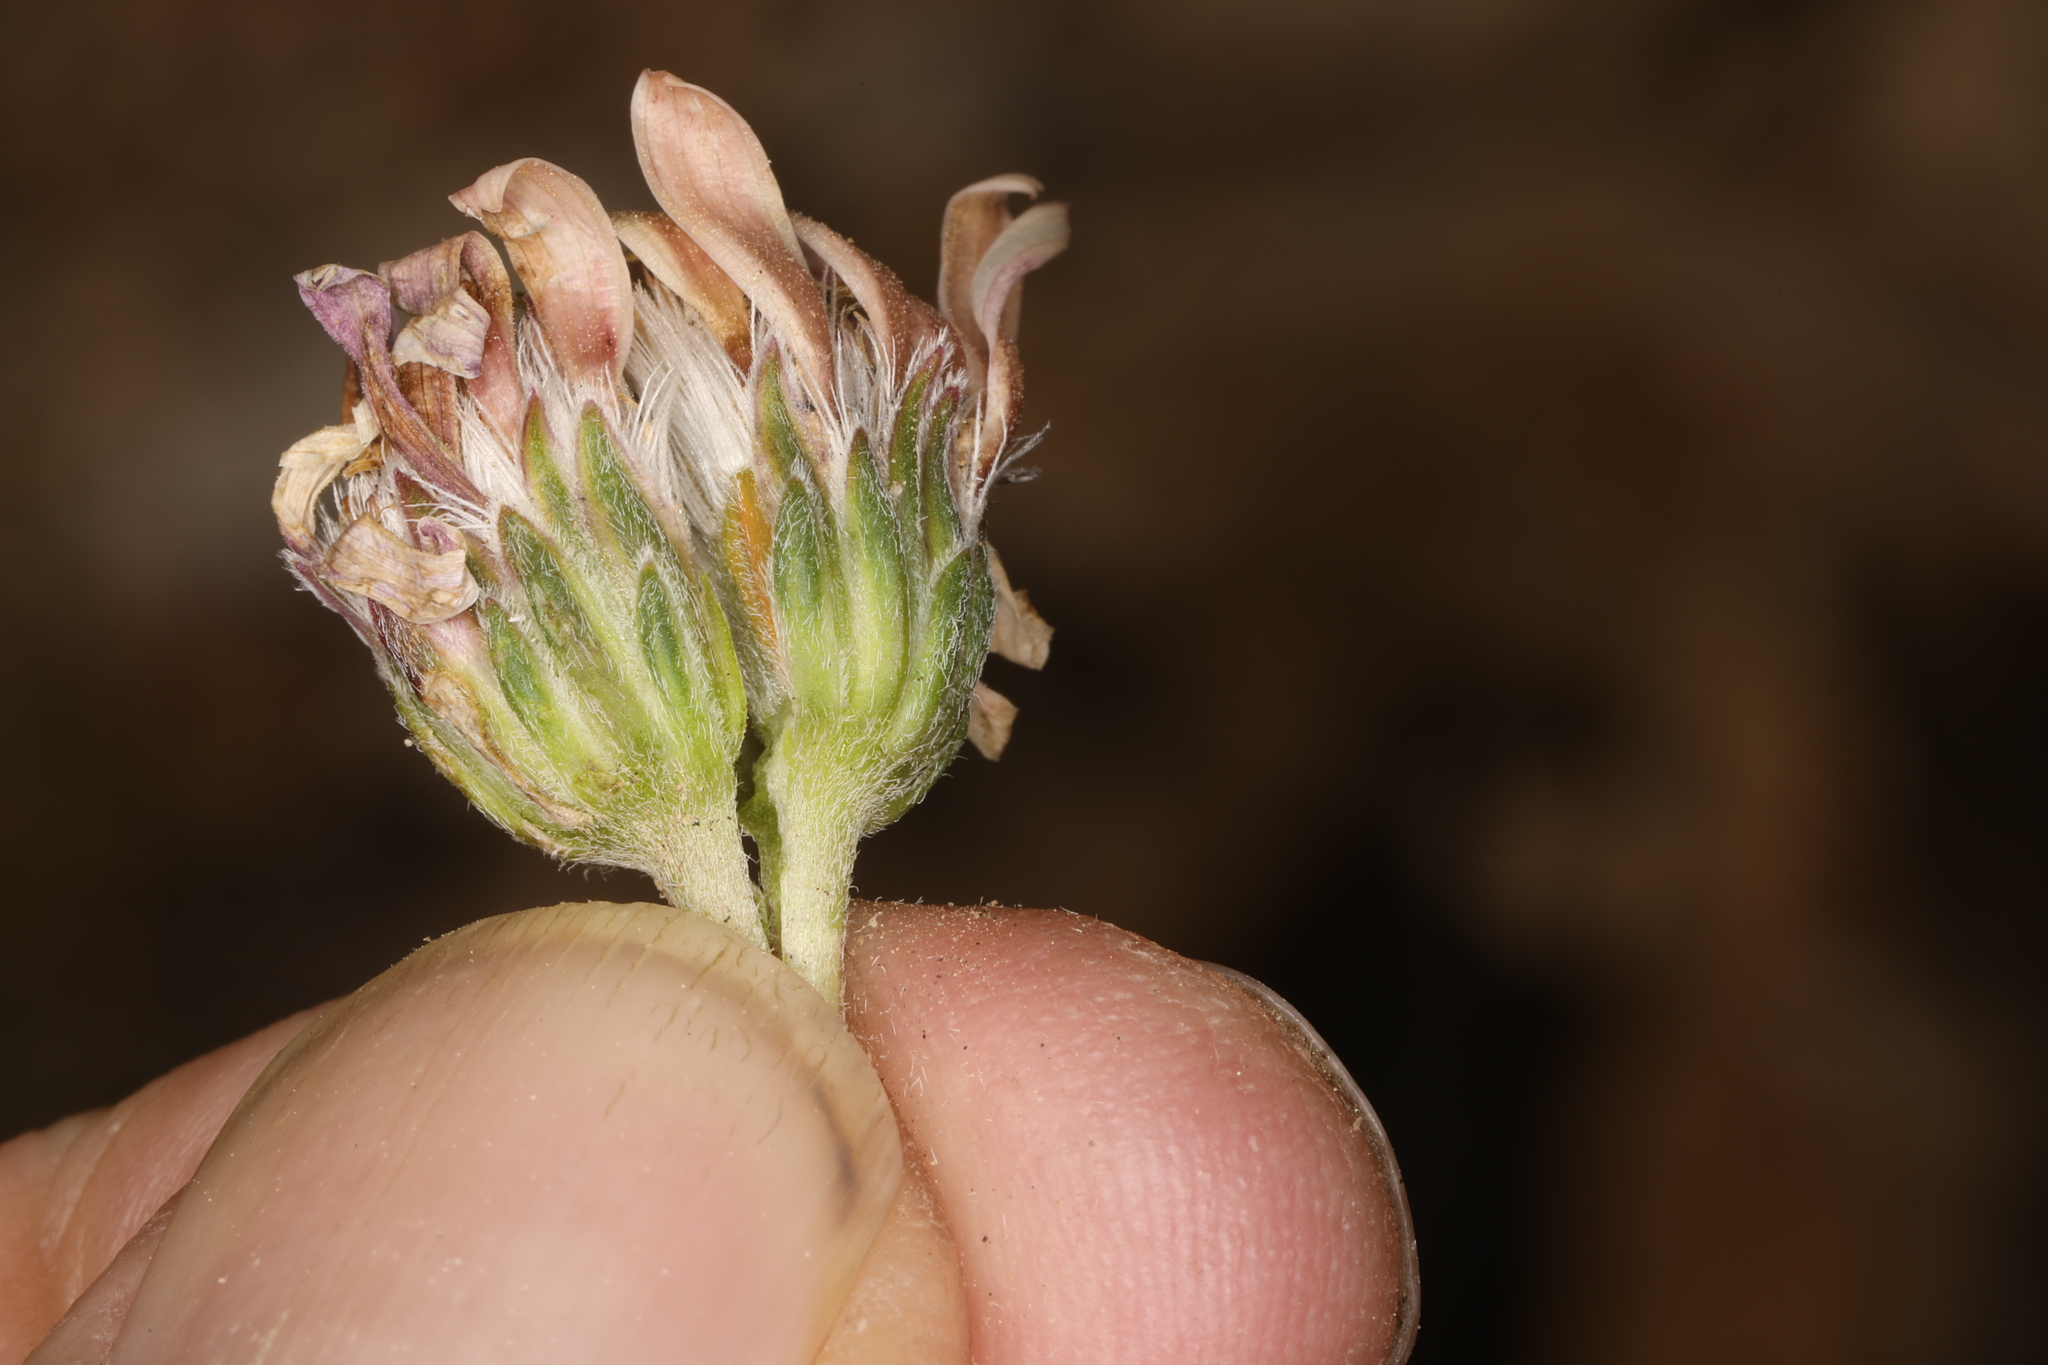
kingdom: Plantae
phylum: Tracheophyta
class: Magnoliopsida
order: Asterales
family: Asteraceae
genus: Townsendia
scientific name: Townsendia scapigera
